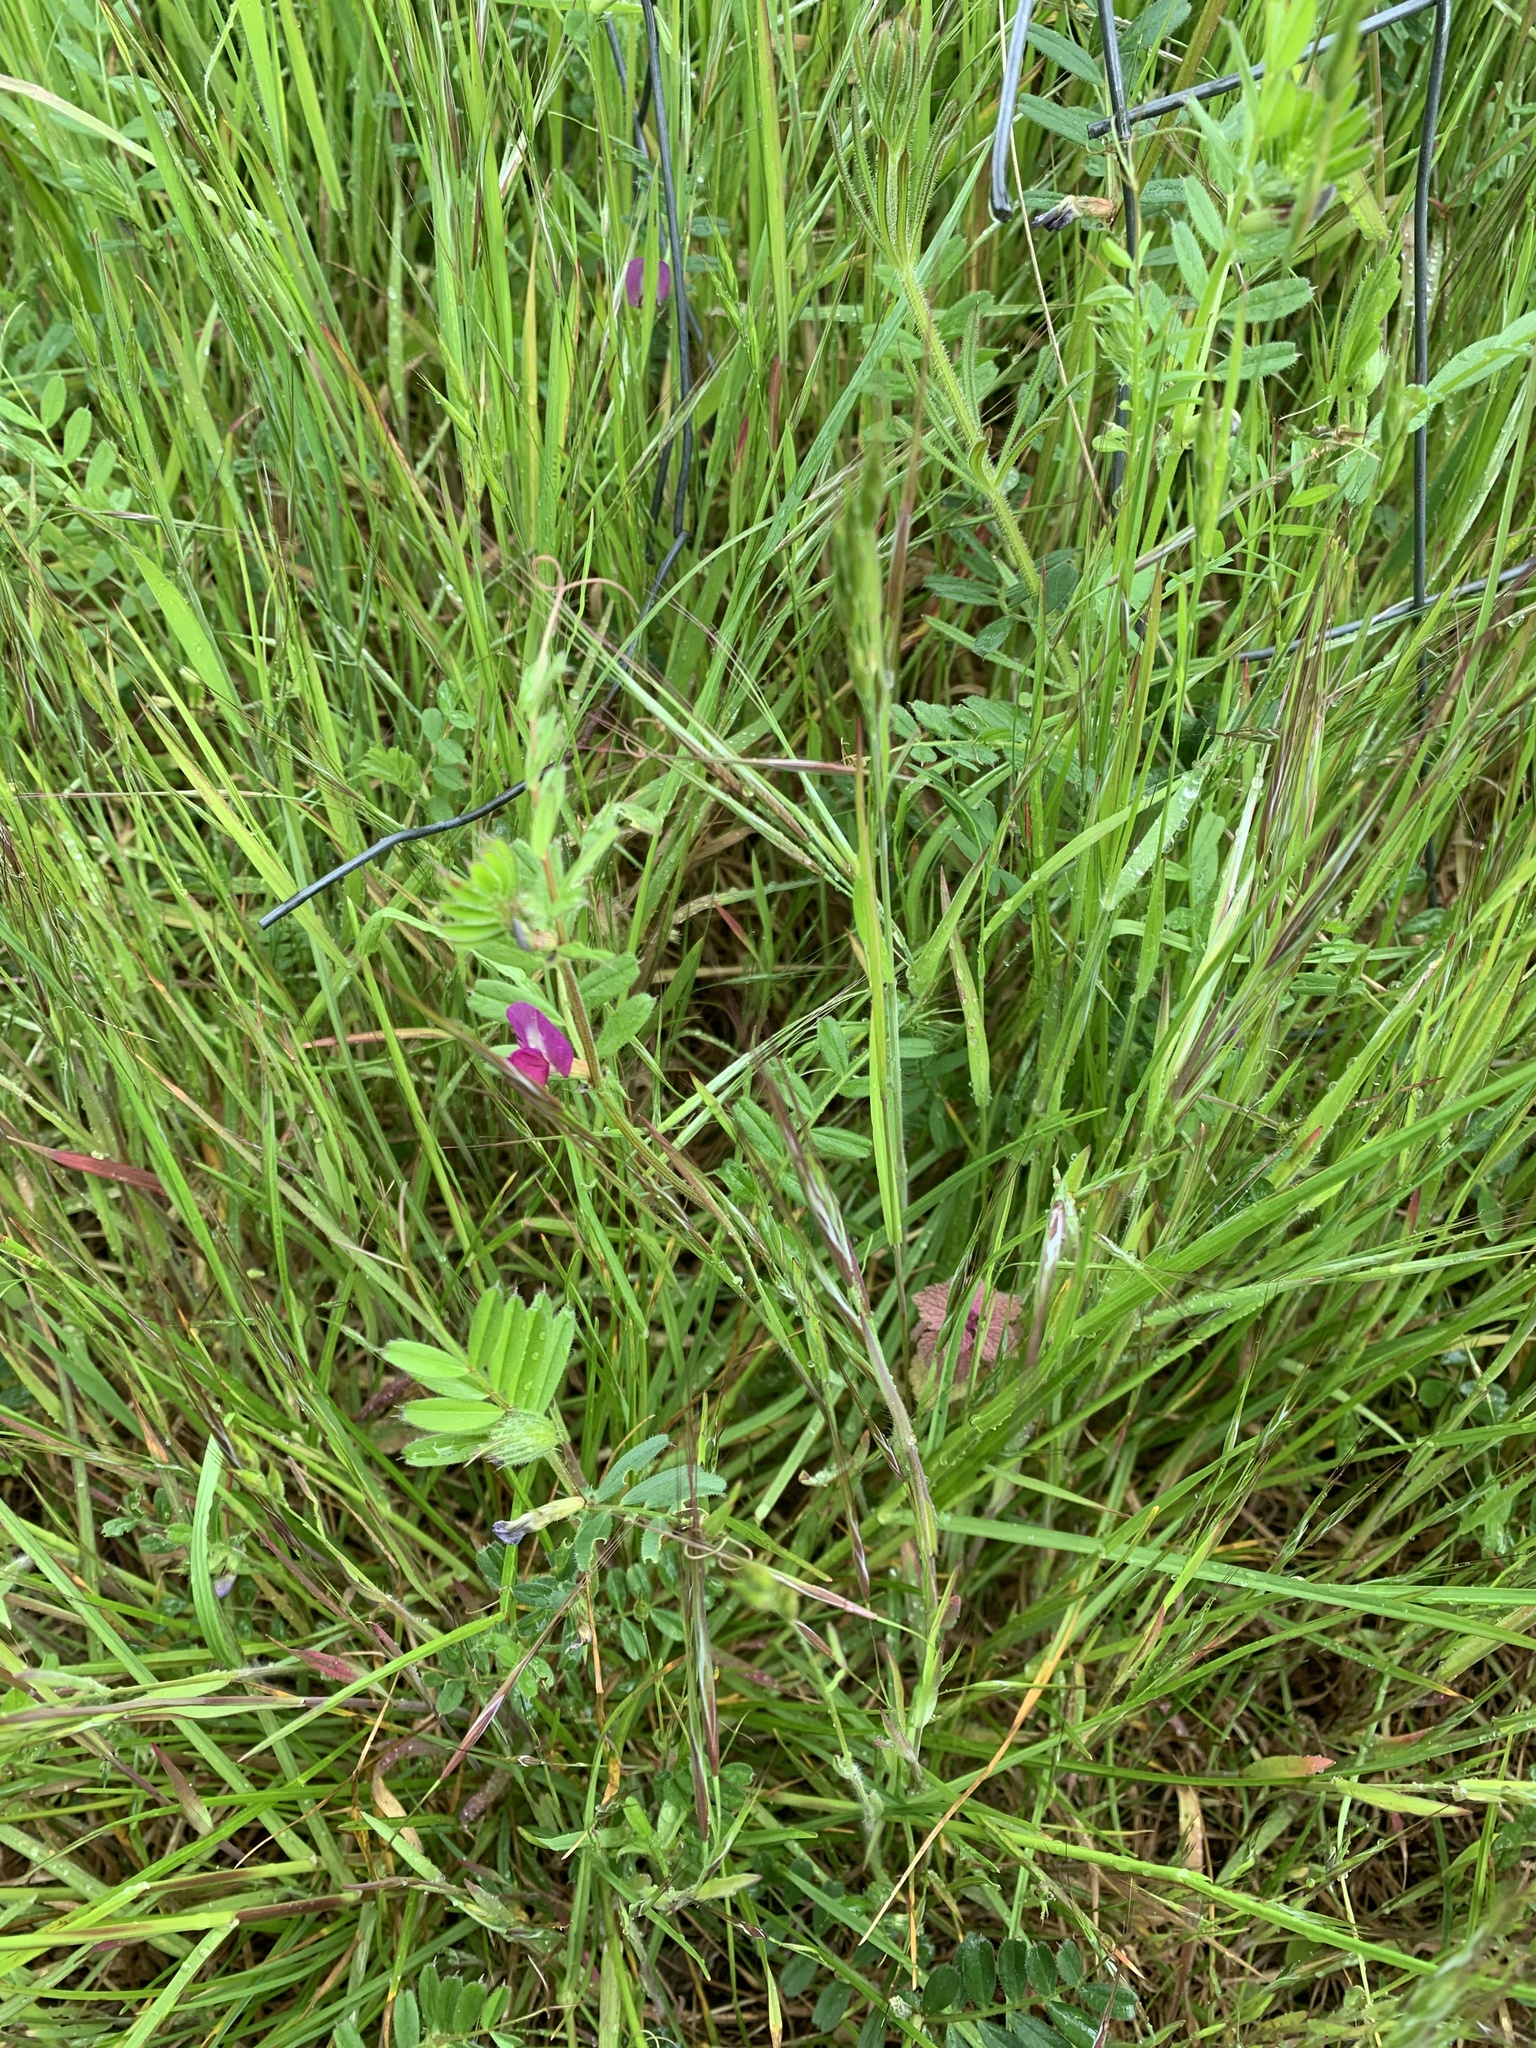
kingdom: Plantae
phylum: Tracheophyta
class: Magnoliopsida
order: Fabales
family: Fabaceae
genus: Vicia
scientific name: Vicia sativa
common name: Garden vetch
